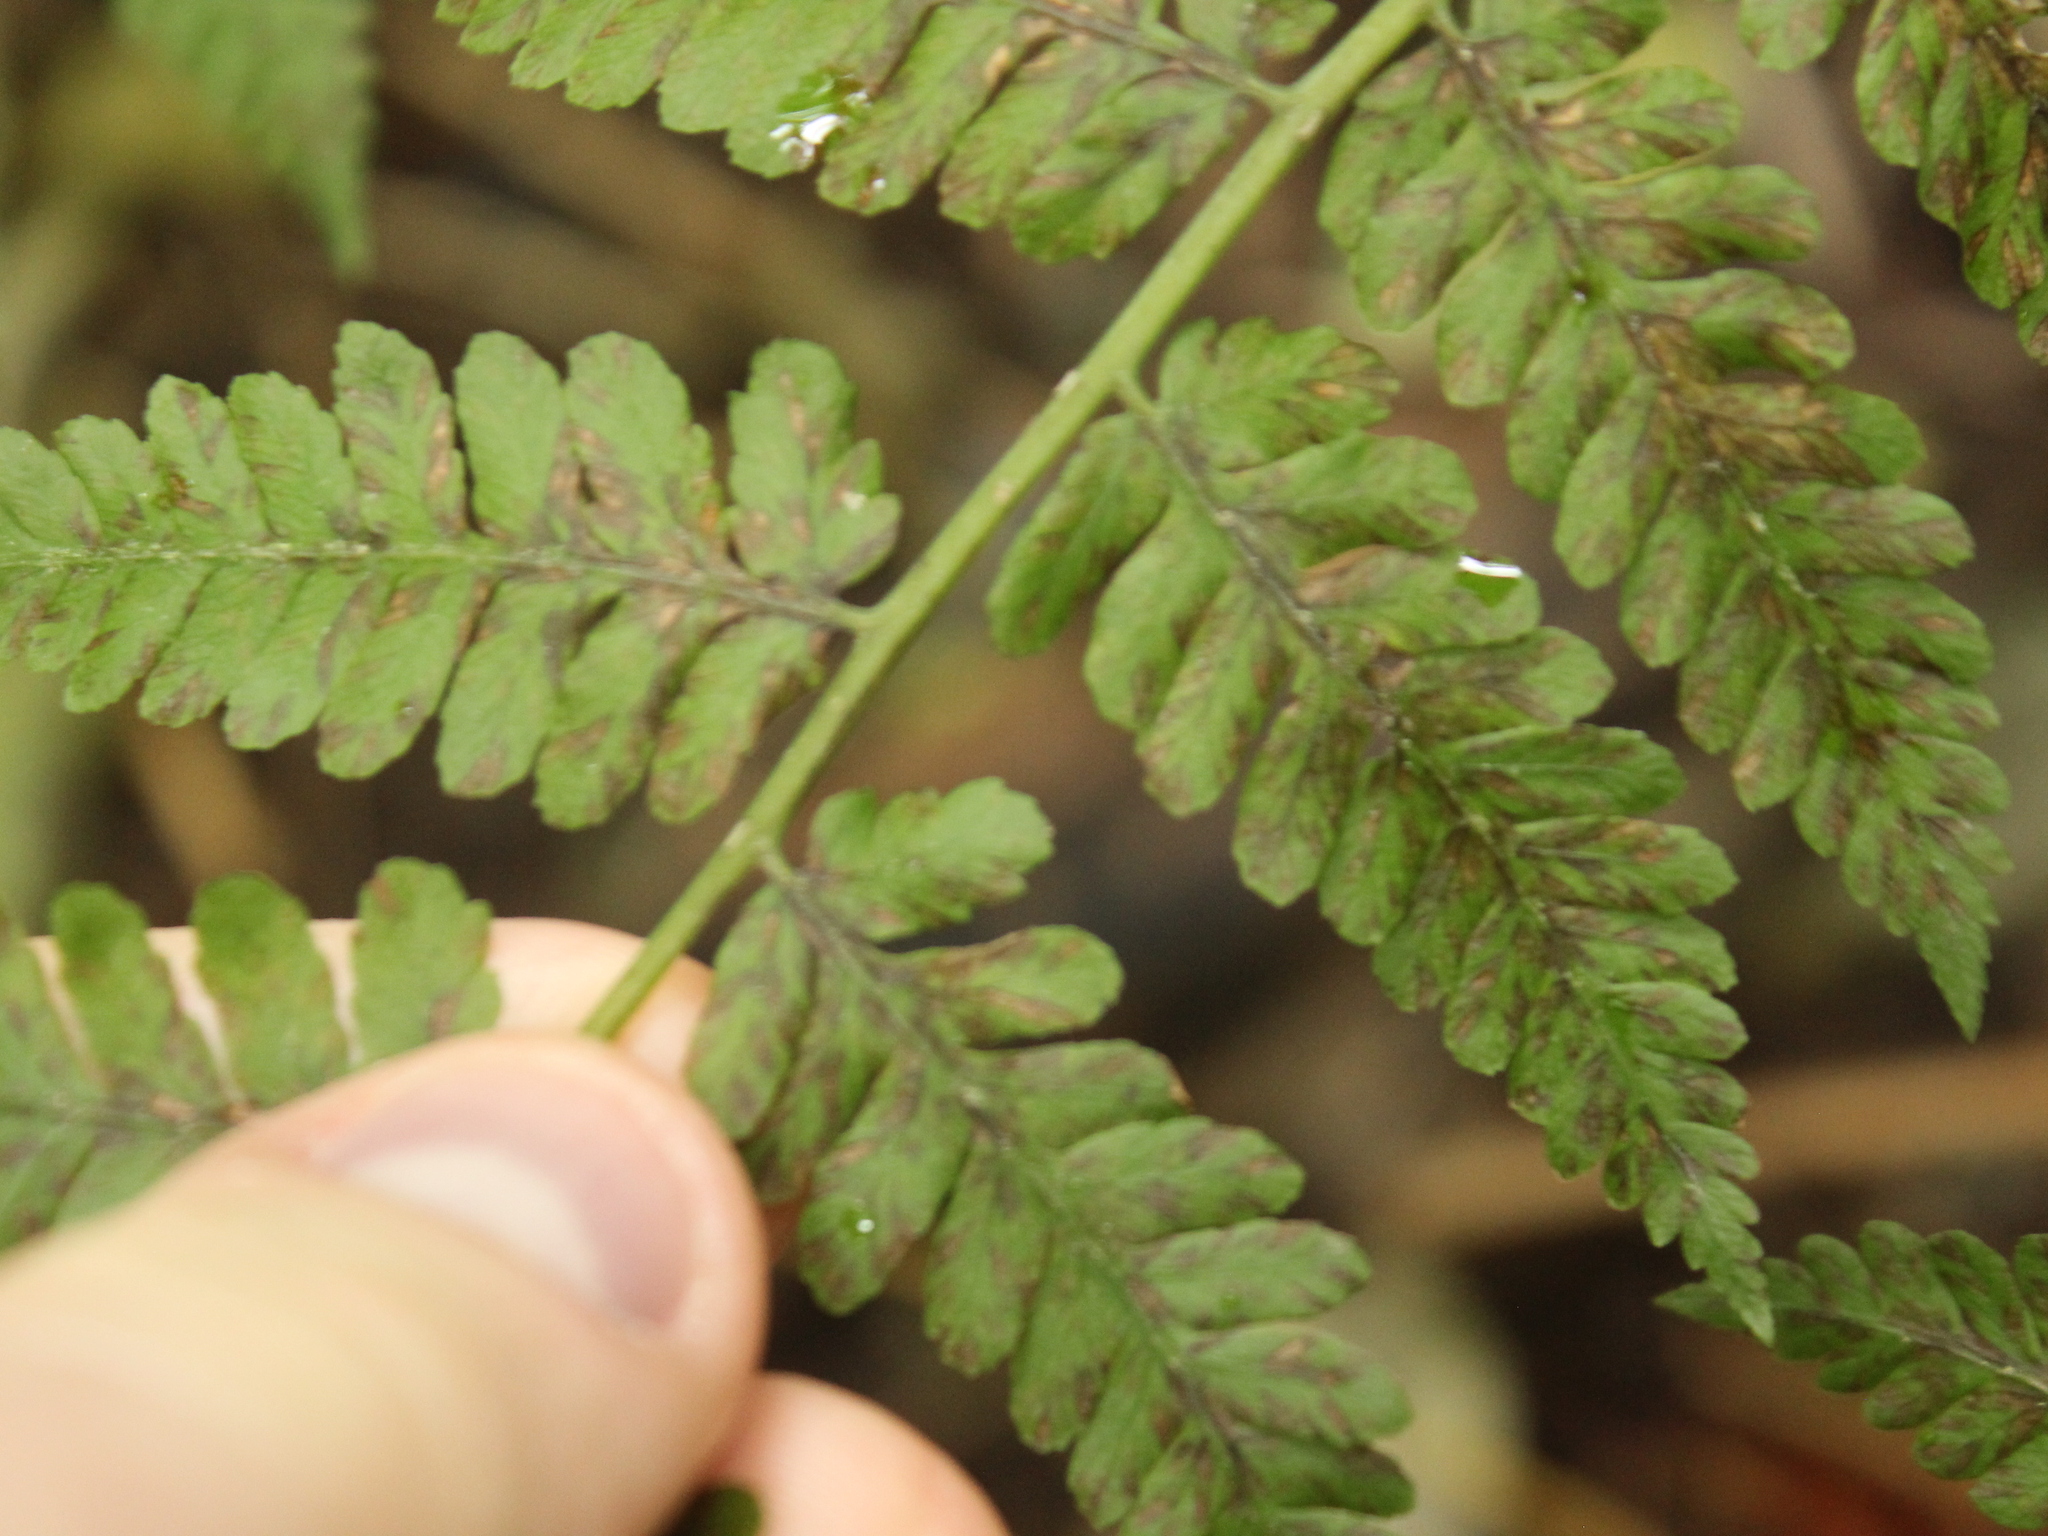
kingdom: Plantae
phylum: Tracheophyta
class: Polypodiopsida
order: Polypodiales
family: Athyriaceae
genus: Diplazium
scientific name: Diplazium australe
